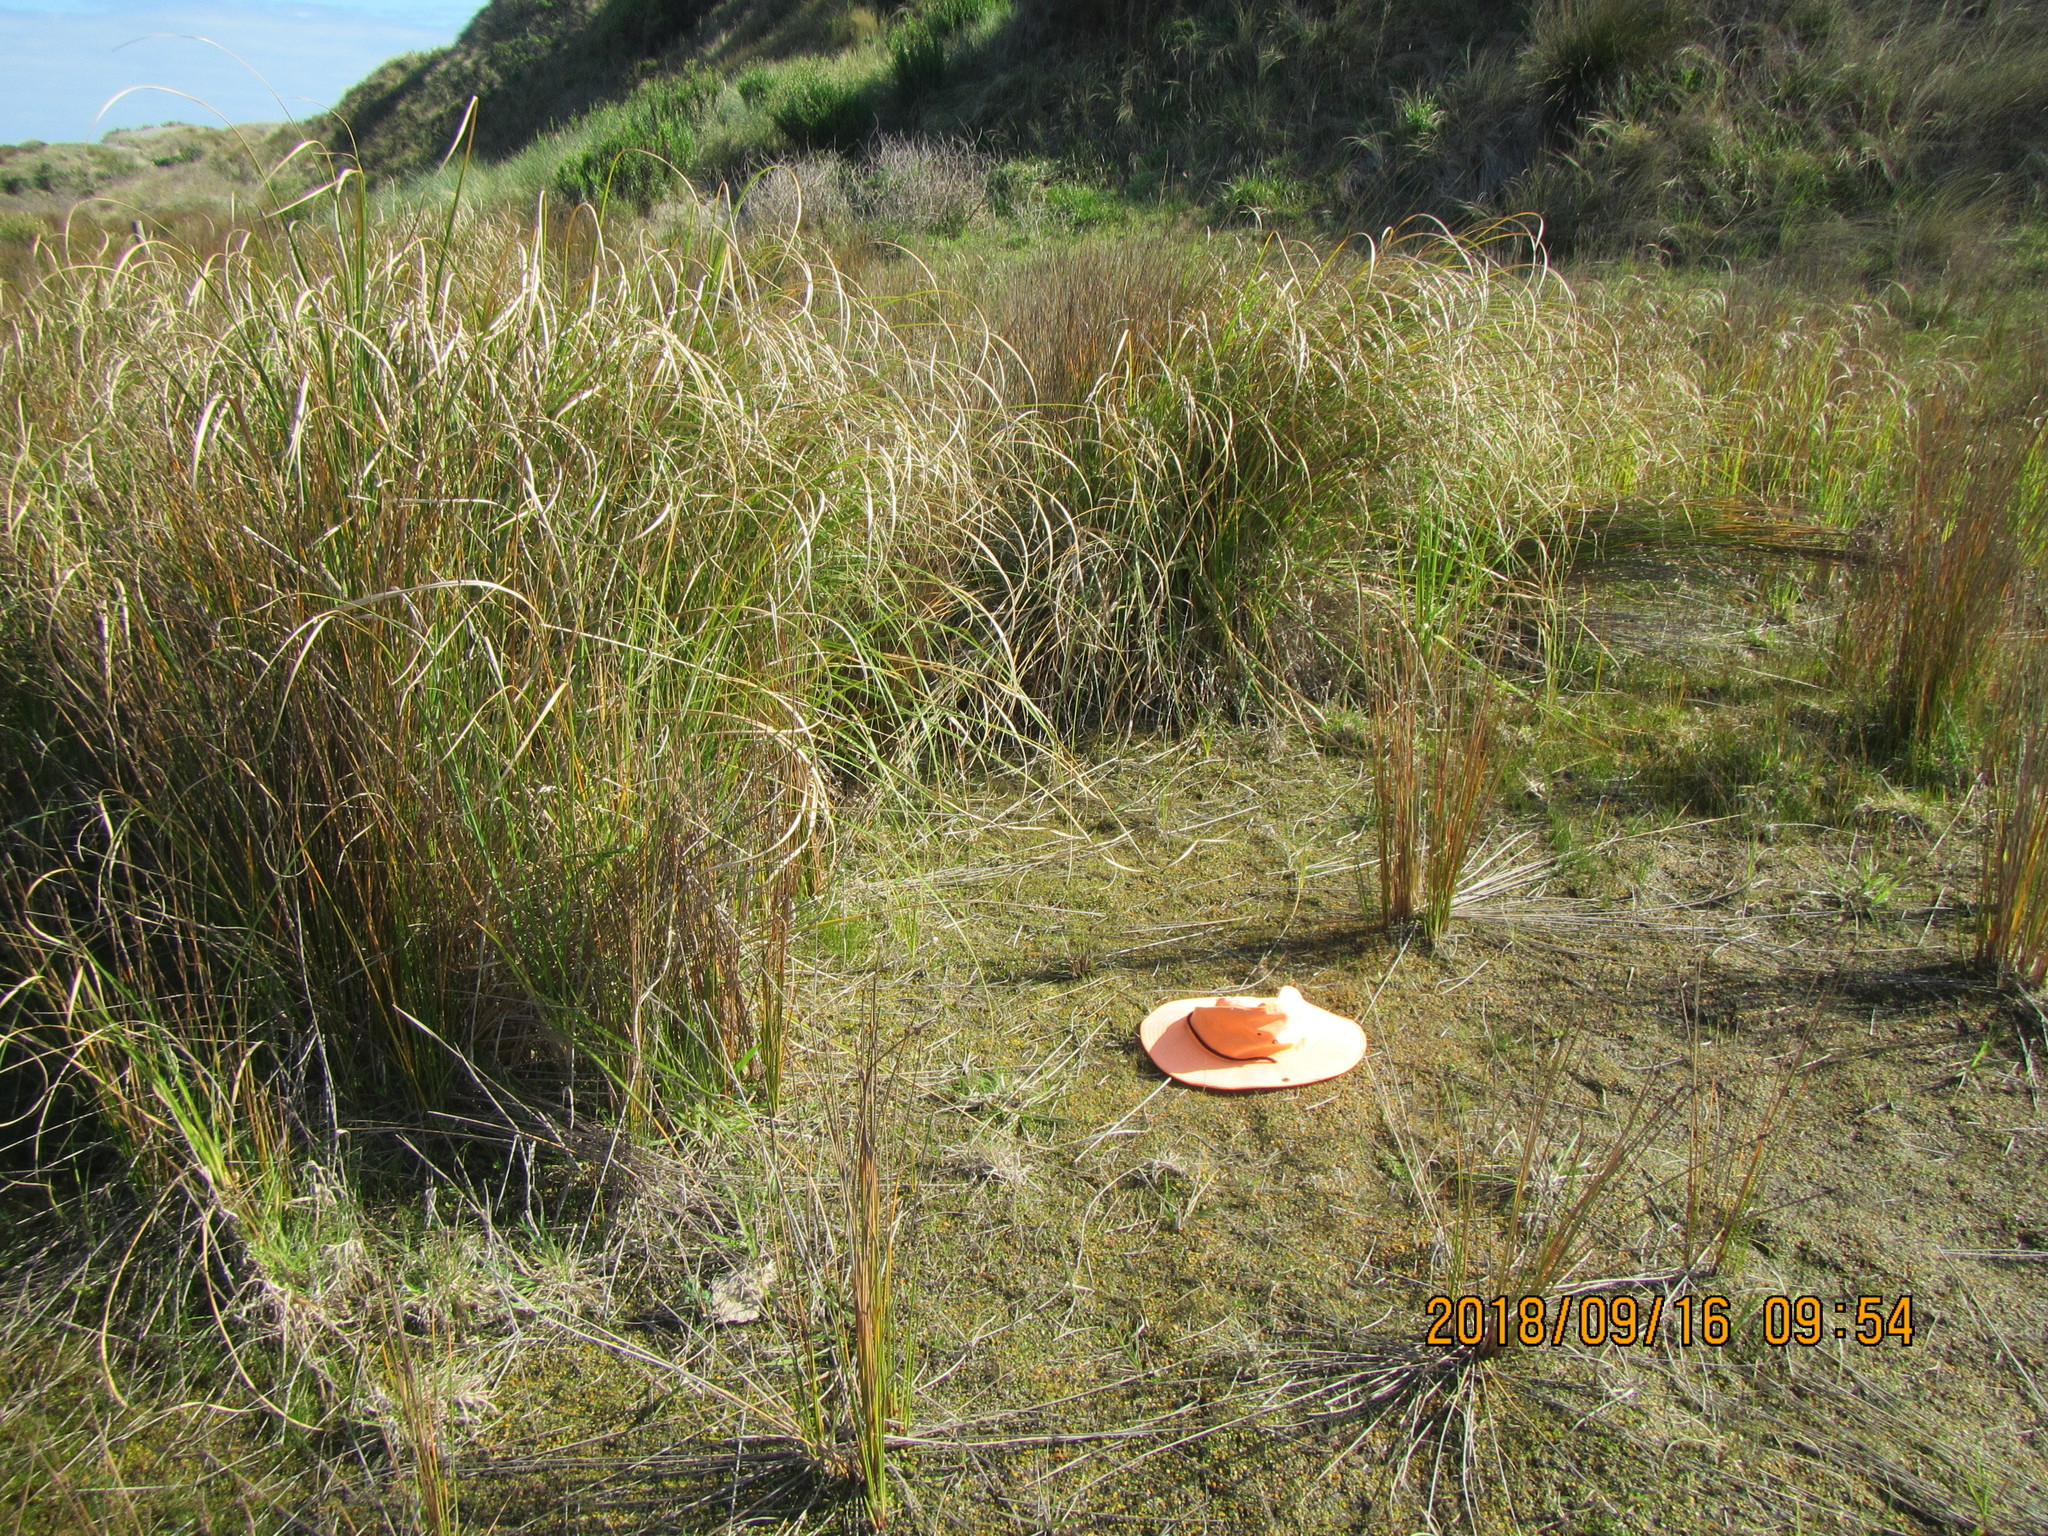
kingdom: Plantae
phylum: Tracheophyta
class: Magnoliopsida
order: Asterales
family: Goodeniaceae
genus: Goodenia
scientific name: Goodenia heenanii
